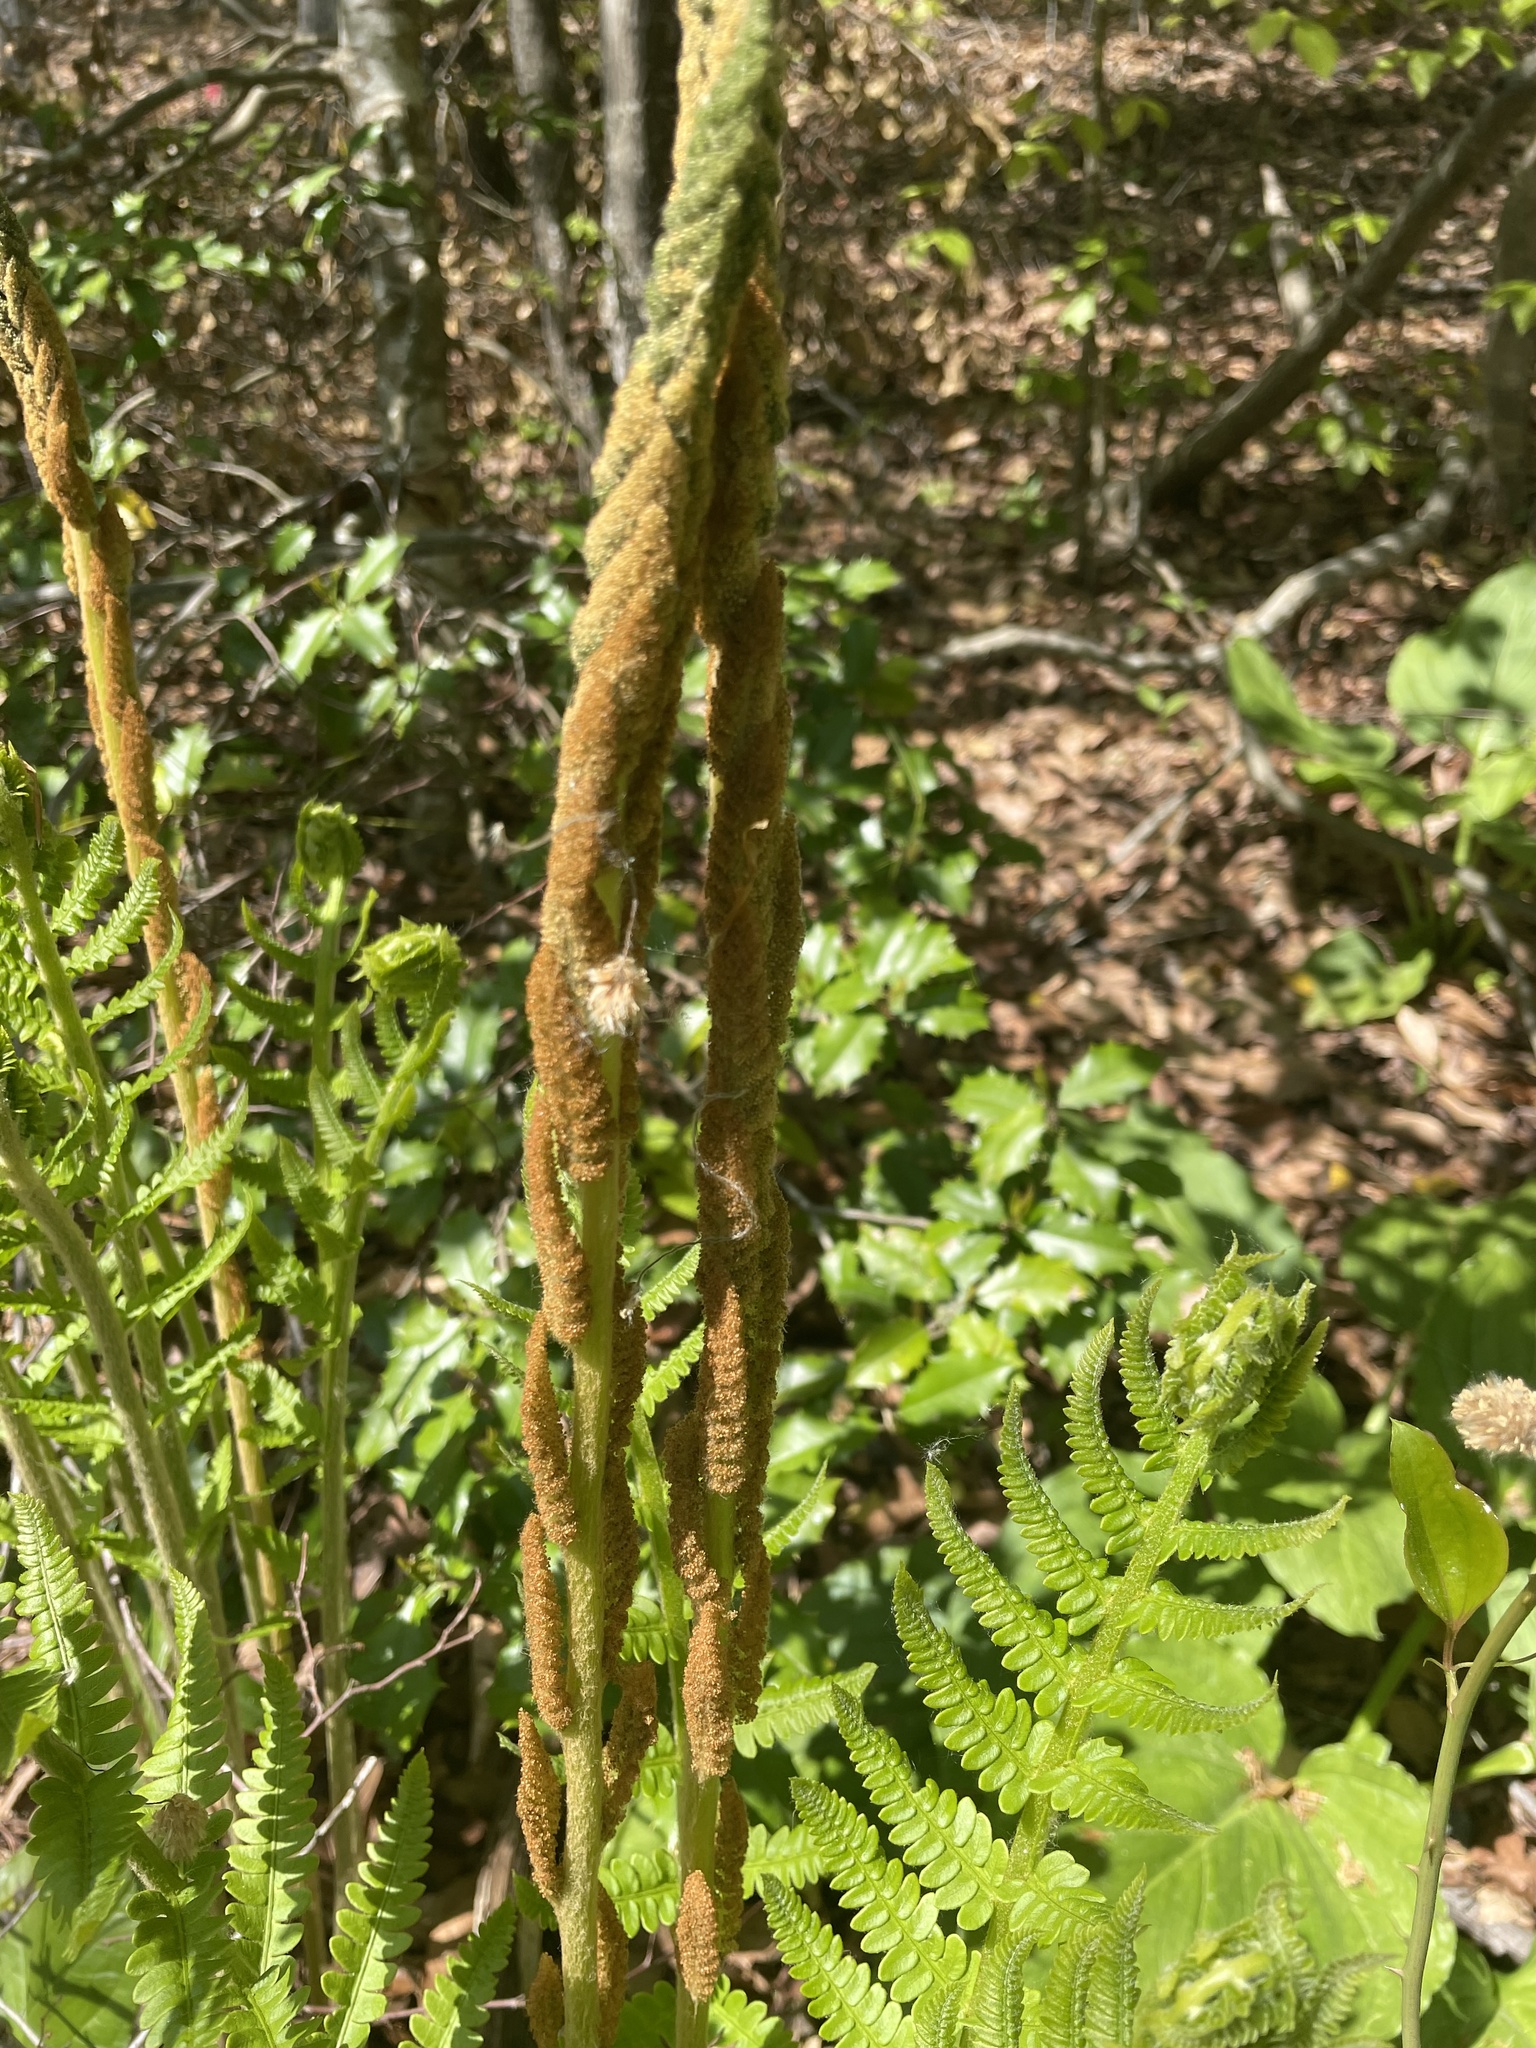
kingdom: Plantae
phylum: Tracheophyta
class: Polypodiopsida
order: Osmundales
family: Osmundaceae
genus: Osmundastrum
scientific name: Osmundastrum cinnamomeum
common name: Cinnamon fern
